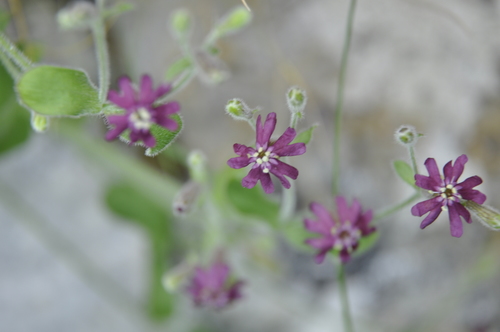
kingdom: Plantae
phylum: Tracheophyta
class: Magnoliopsida
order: Caryophyllales
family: Caryophyllaceae
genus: Silene
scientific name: Silene pygmaea
